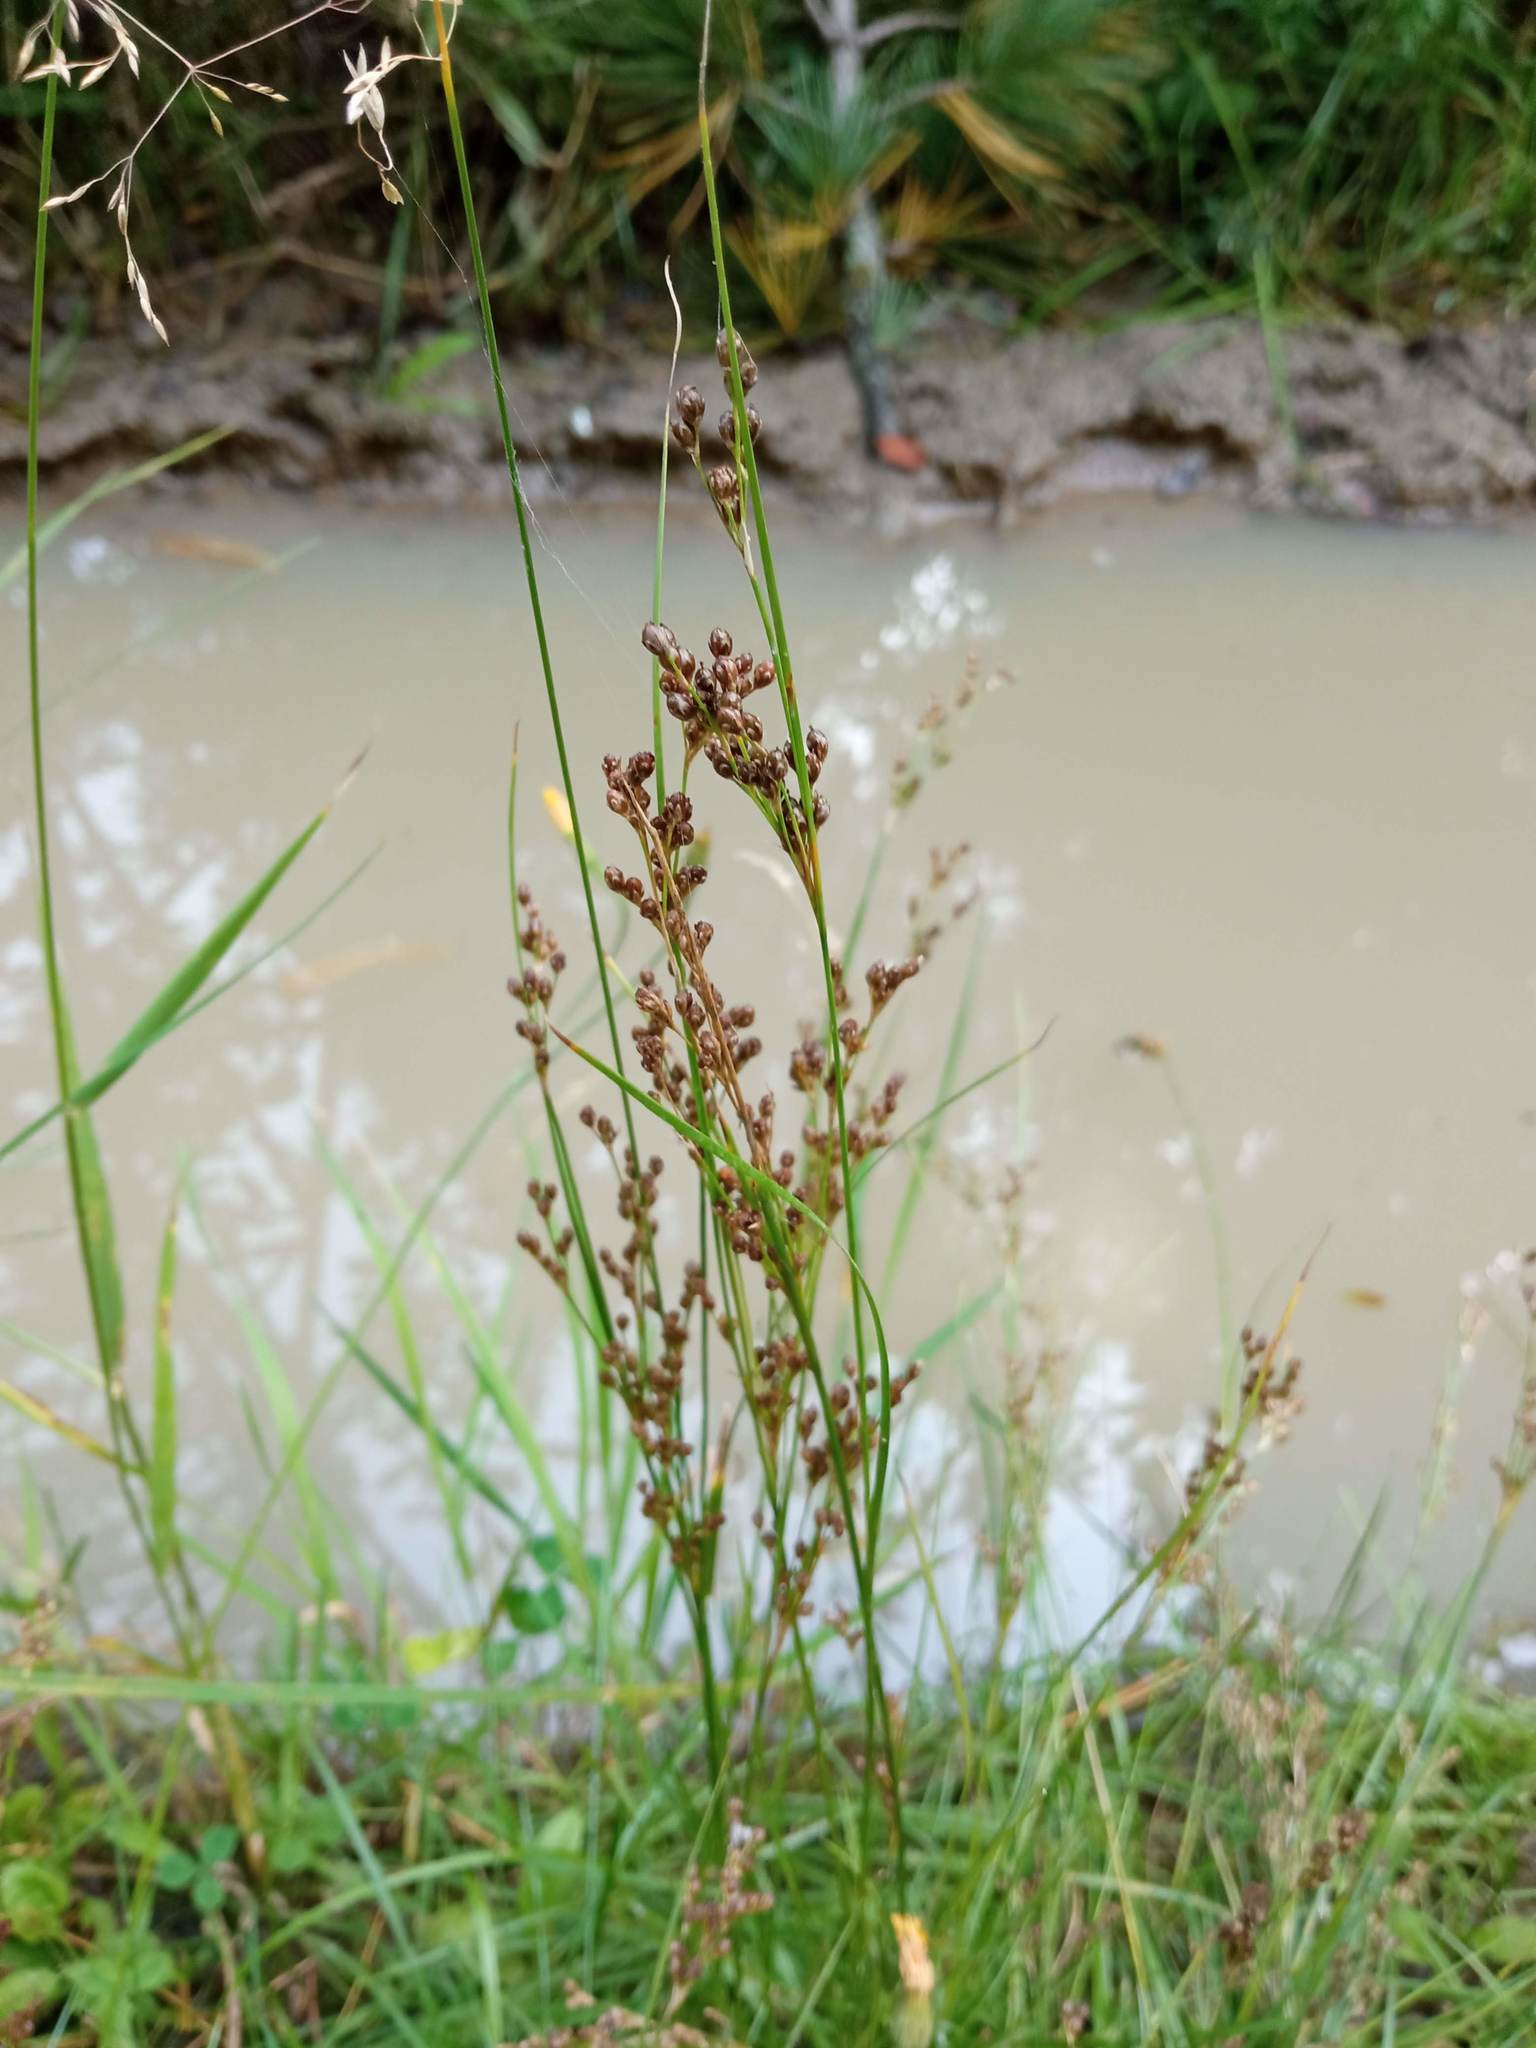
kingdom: Plantae
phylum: Tracheophyta
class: Liliopsida
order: Poales
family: Juncaceae
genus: Juncus
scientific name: Juncus compressus
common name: Round-fruited rush
